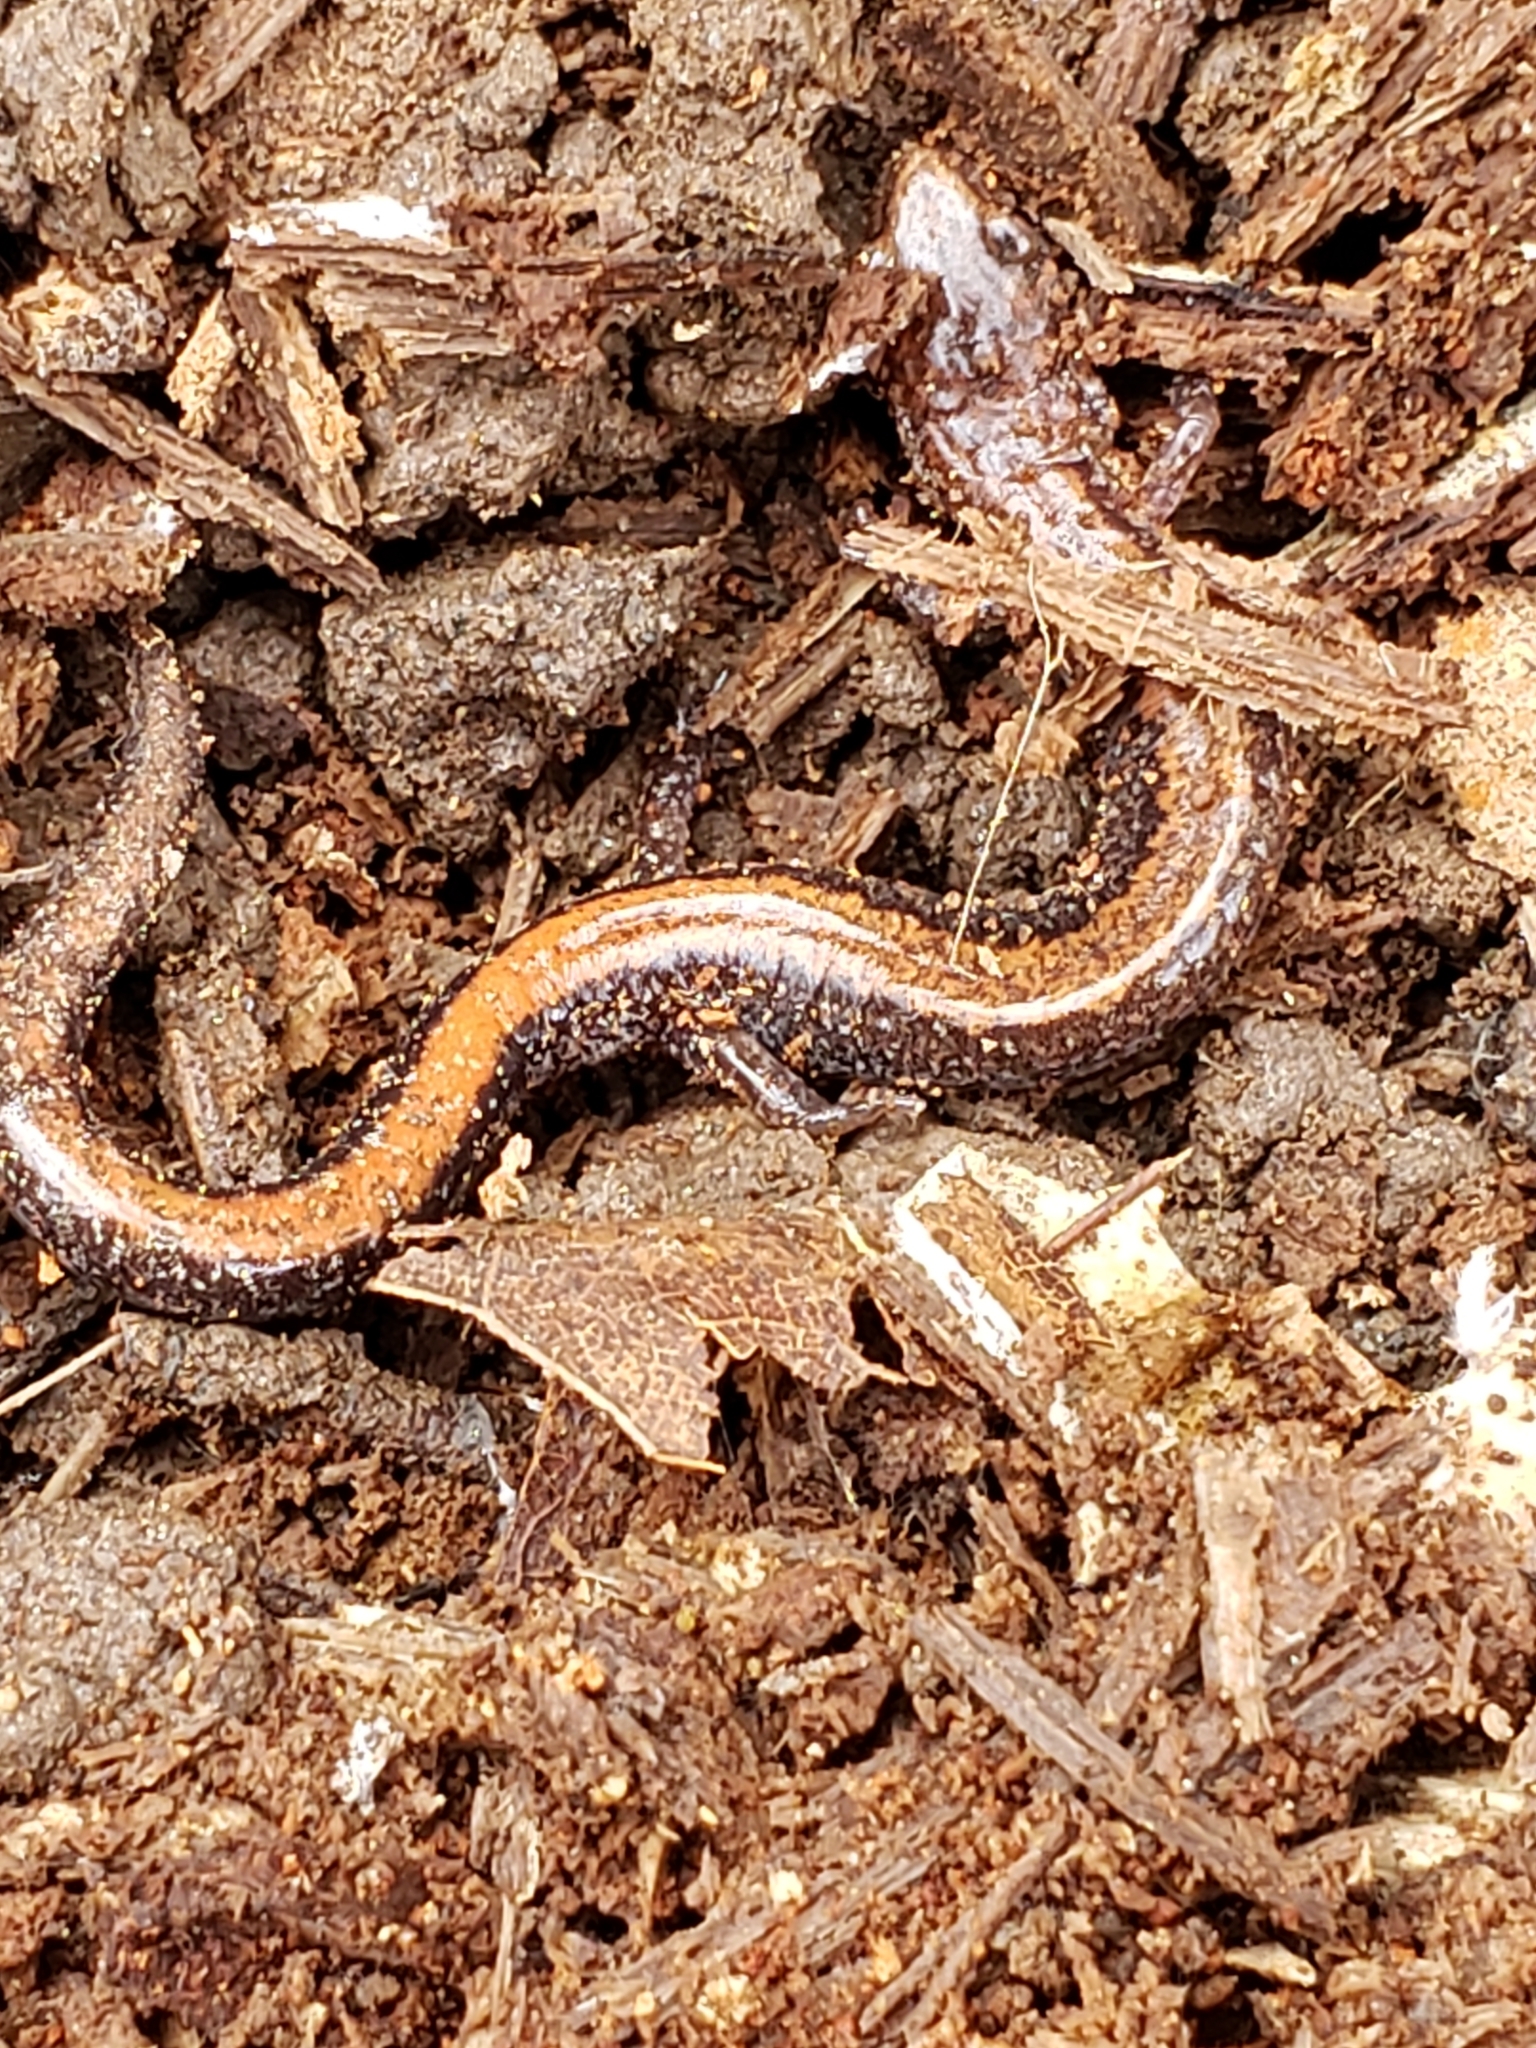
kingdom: Animalia
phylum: Chordata
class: Amphibia
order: Caudata
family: Plethodontidae
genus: Plethodon
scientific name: Plethodon cinereus
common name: Redback salamander
